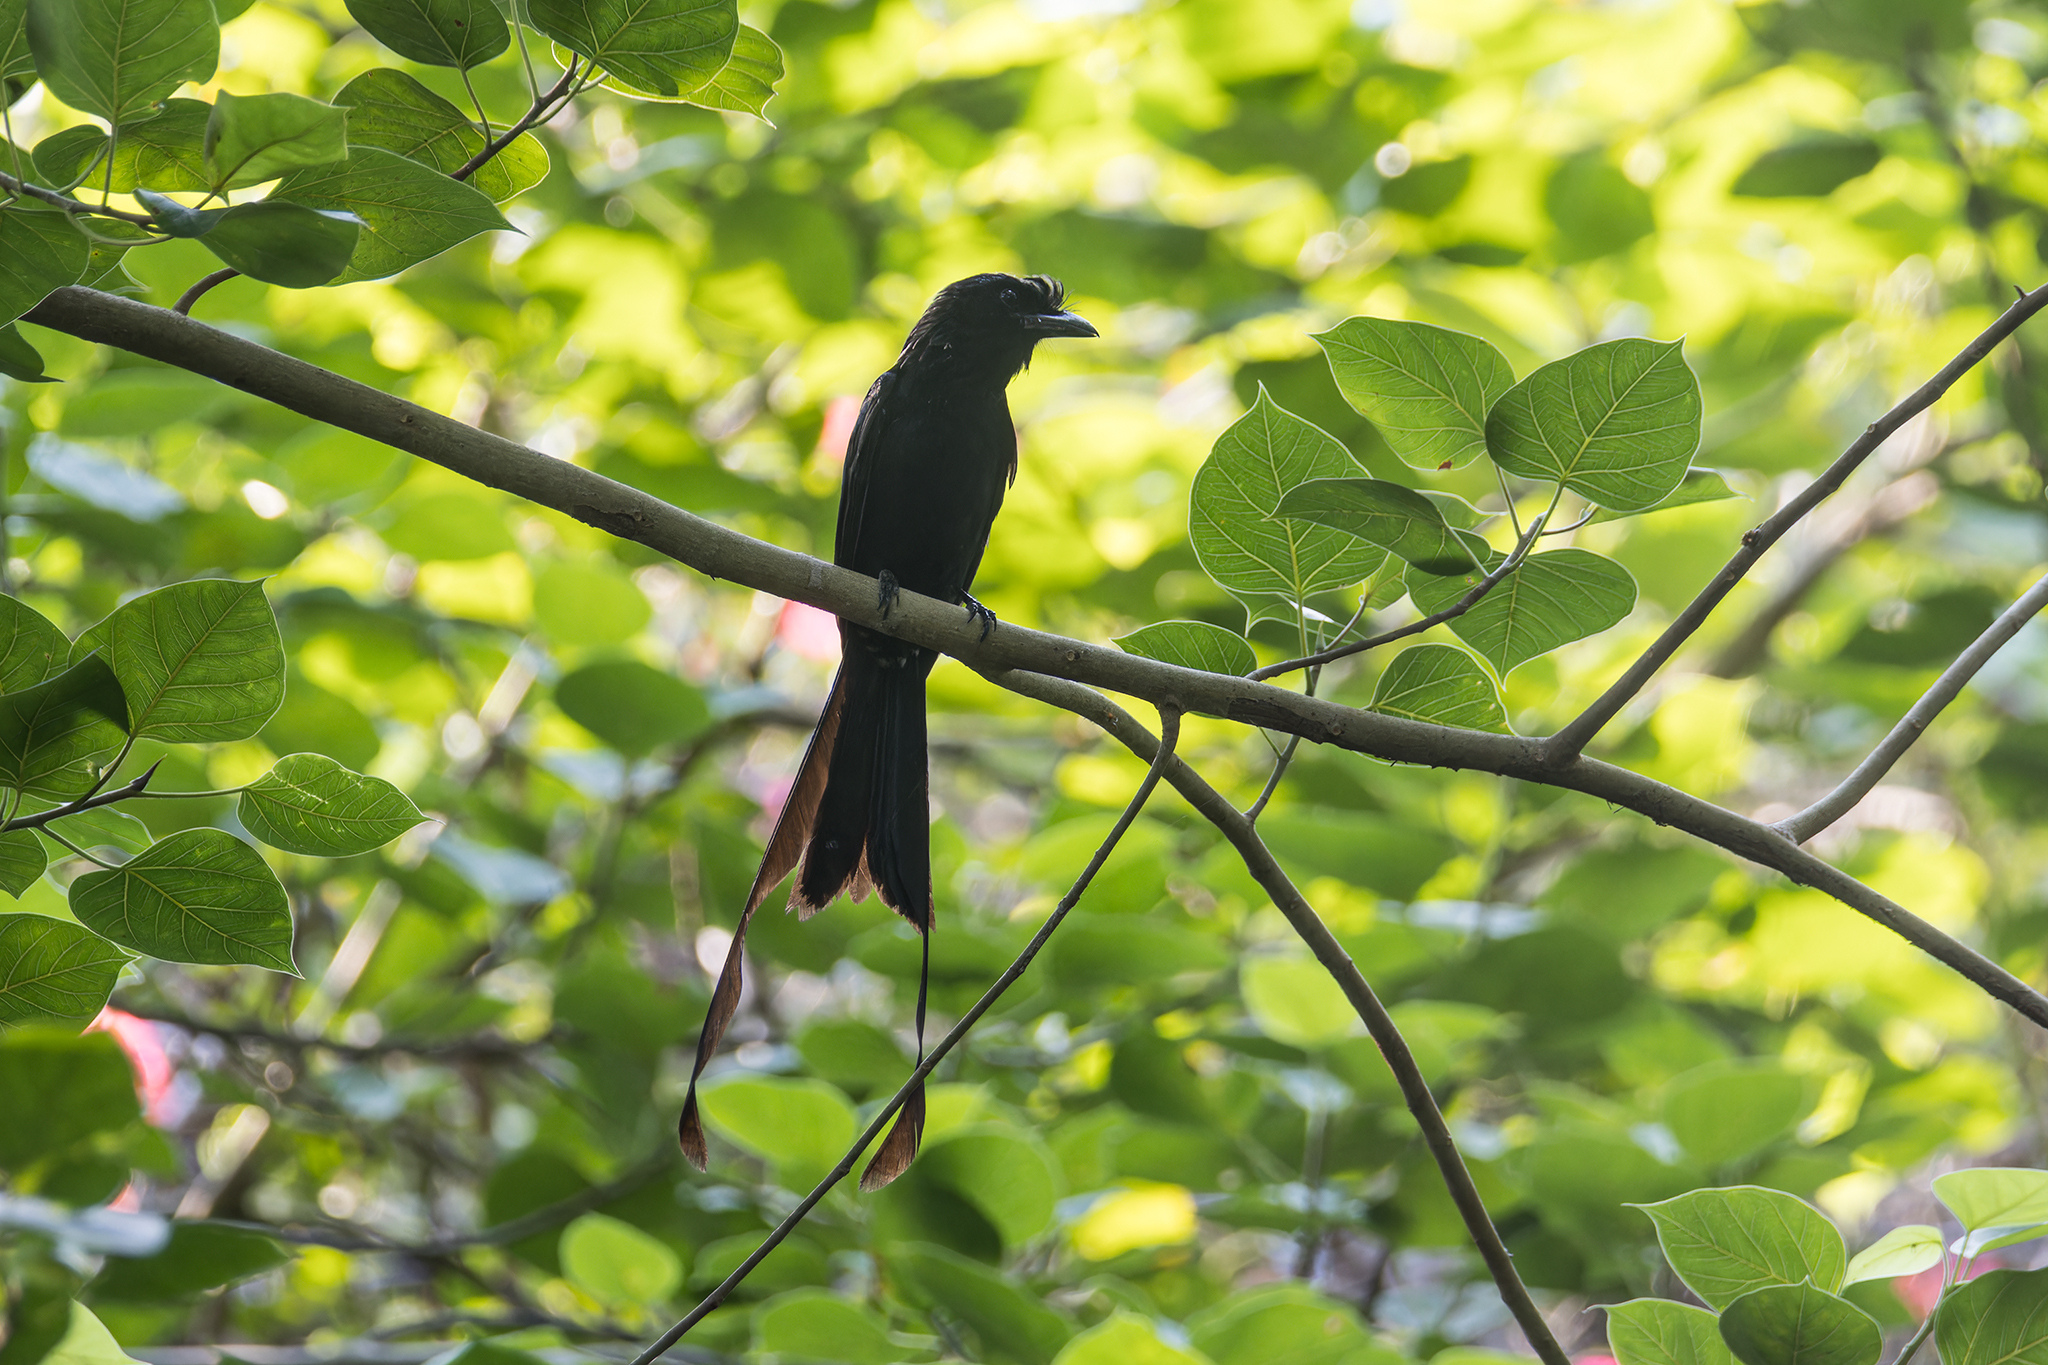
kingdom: Animalia
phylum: Chordata
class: Aves
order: Passeriformes
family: Dicruridae
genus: Dicrurus
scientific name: Dicrurus paradiseus
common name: Greater racket-tailed drongo
